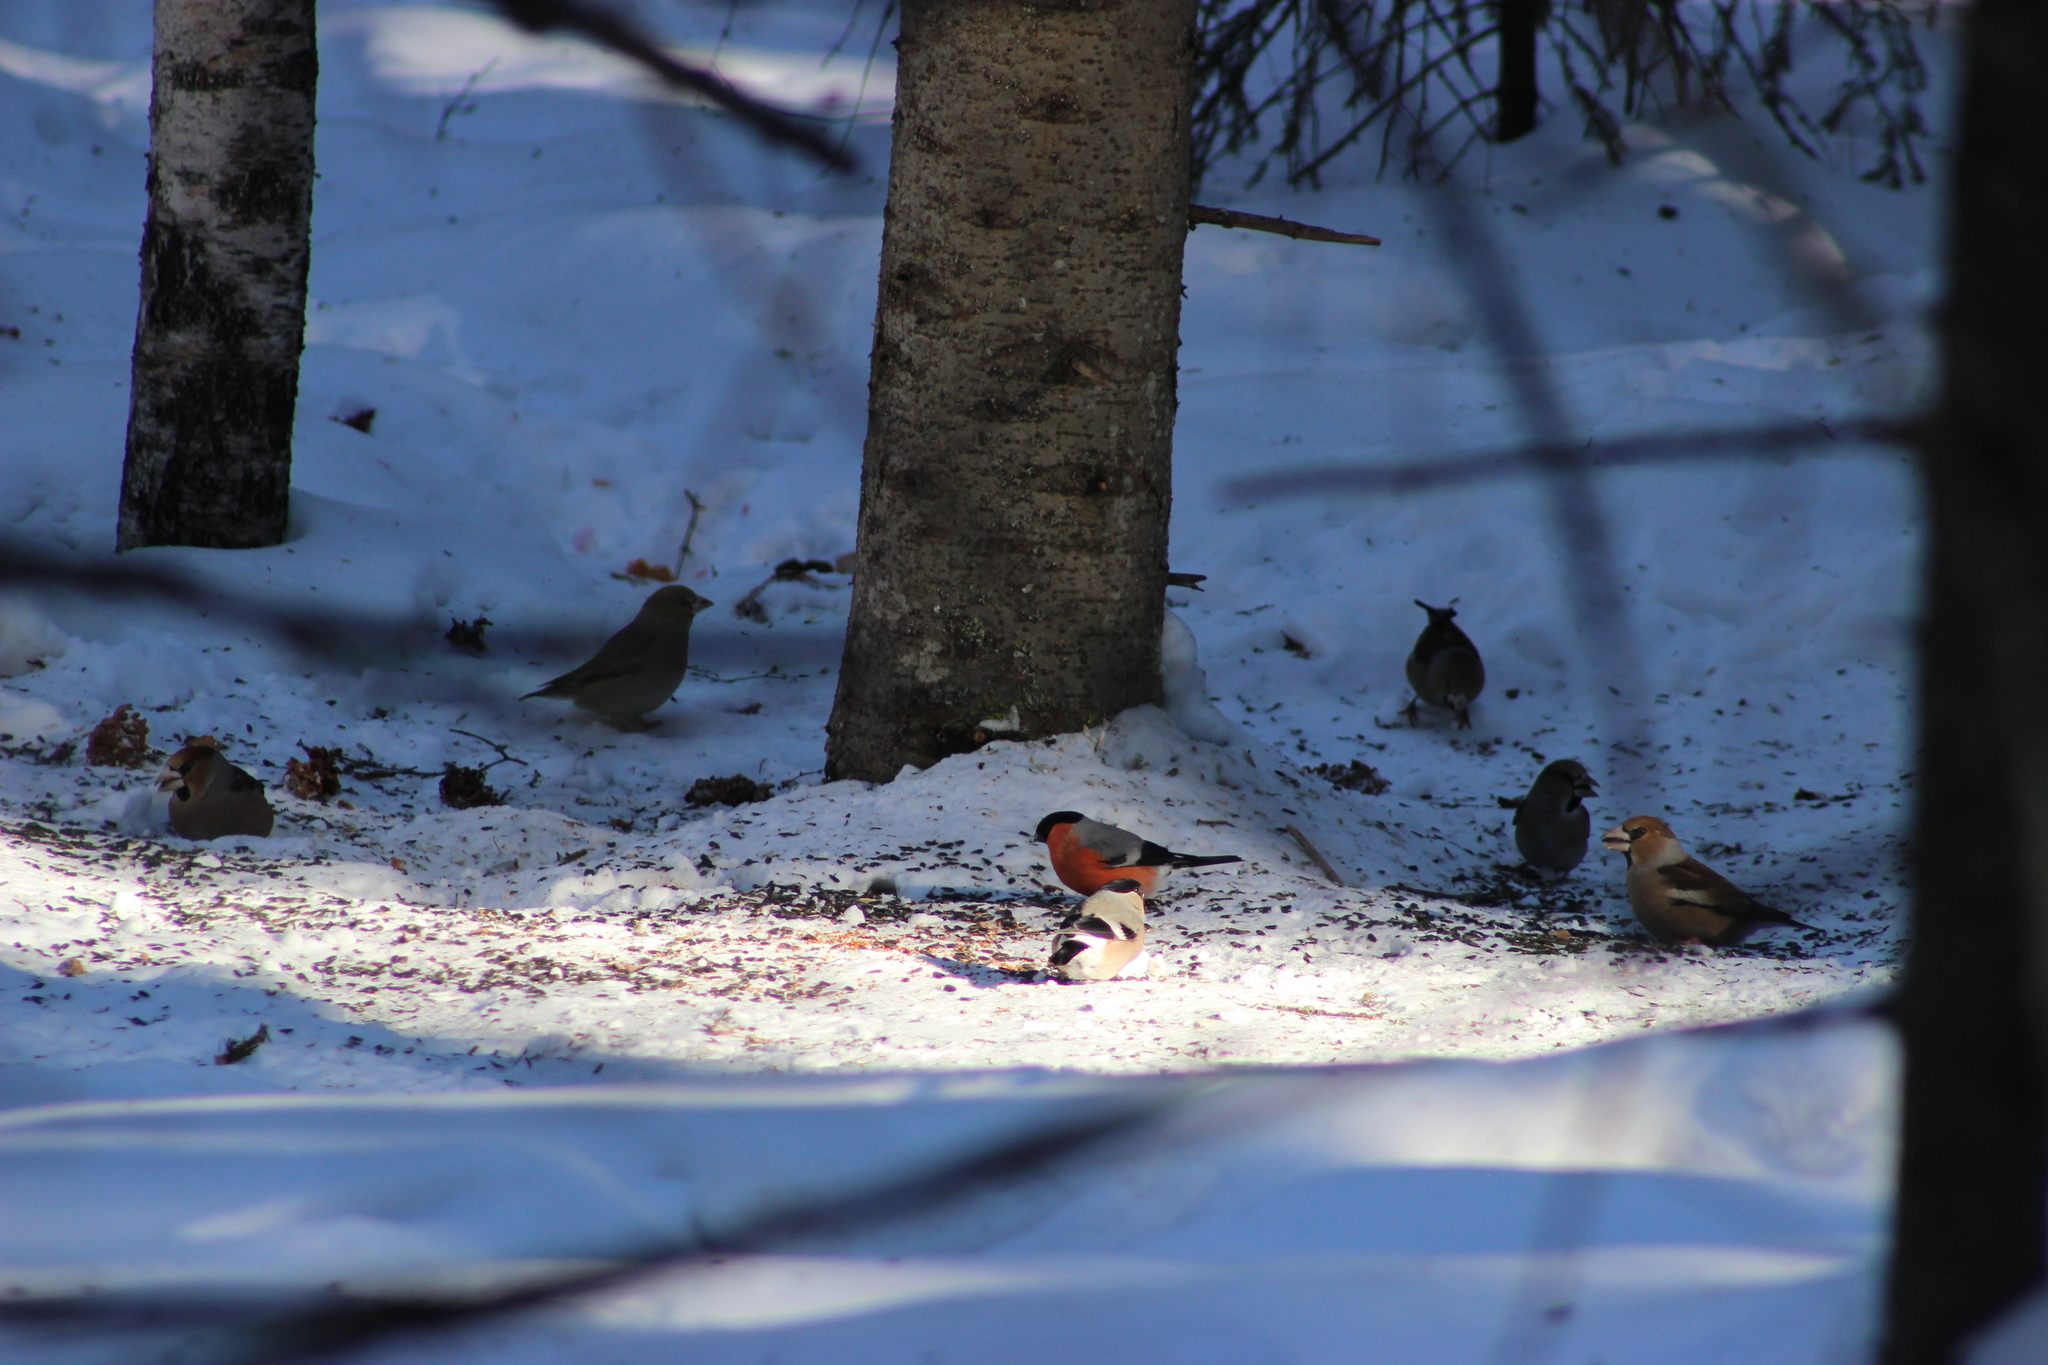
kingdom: Animalia
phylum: Chordata
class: Aves
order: Passeriformes
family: Fringillidae
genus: Pyrrhula
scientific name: Pyrrhula pyrrhula
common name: Eurasian bullfinch
